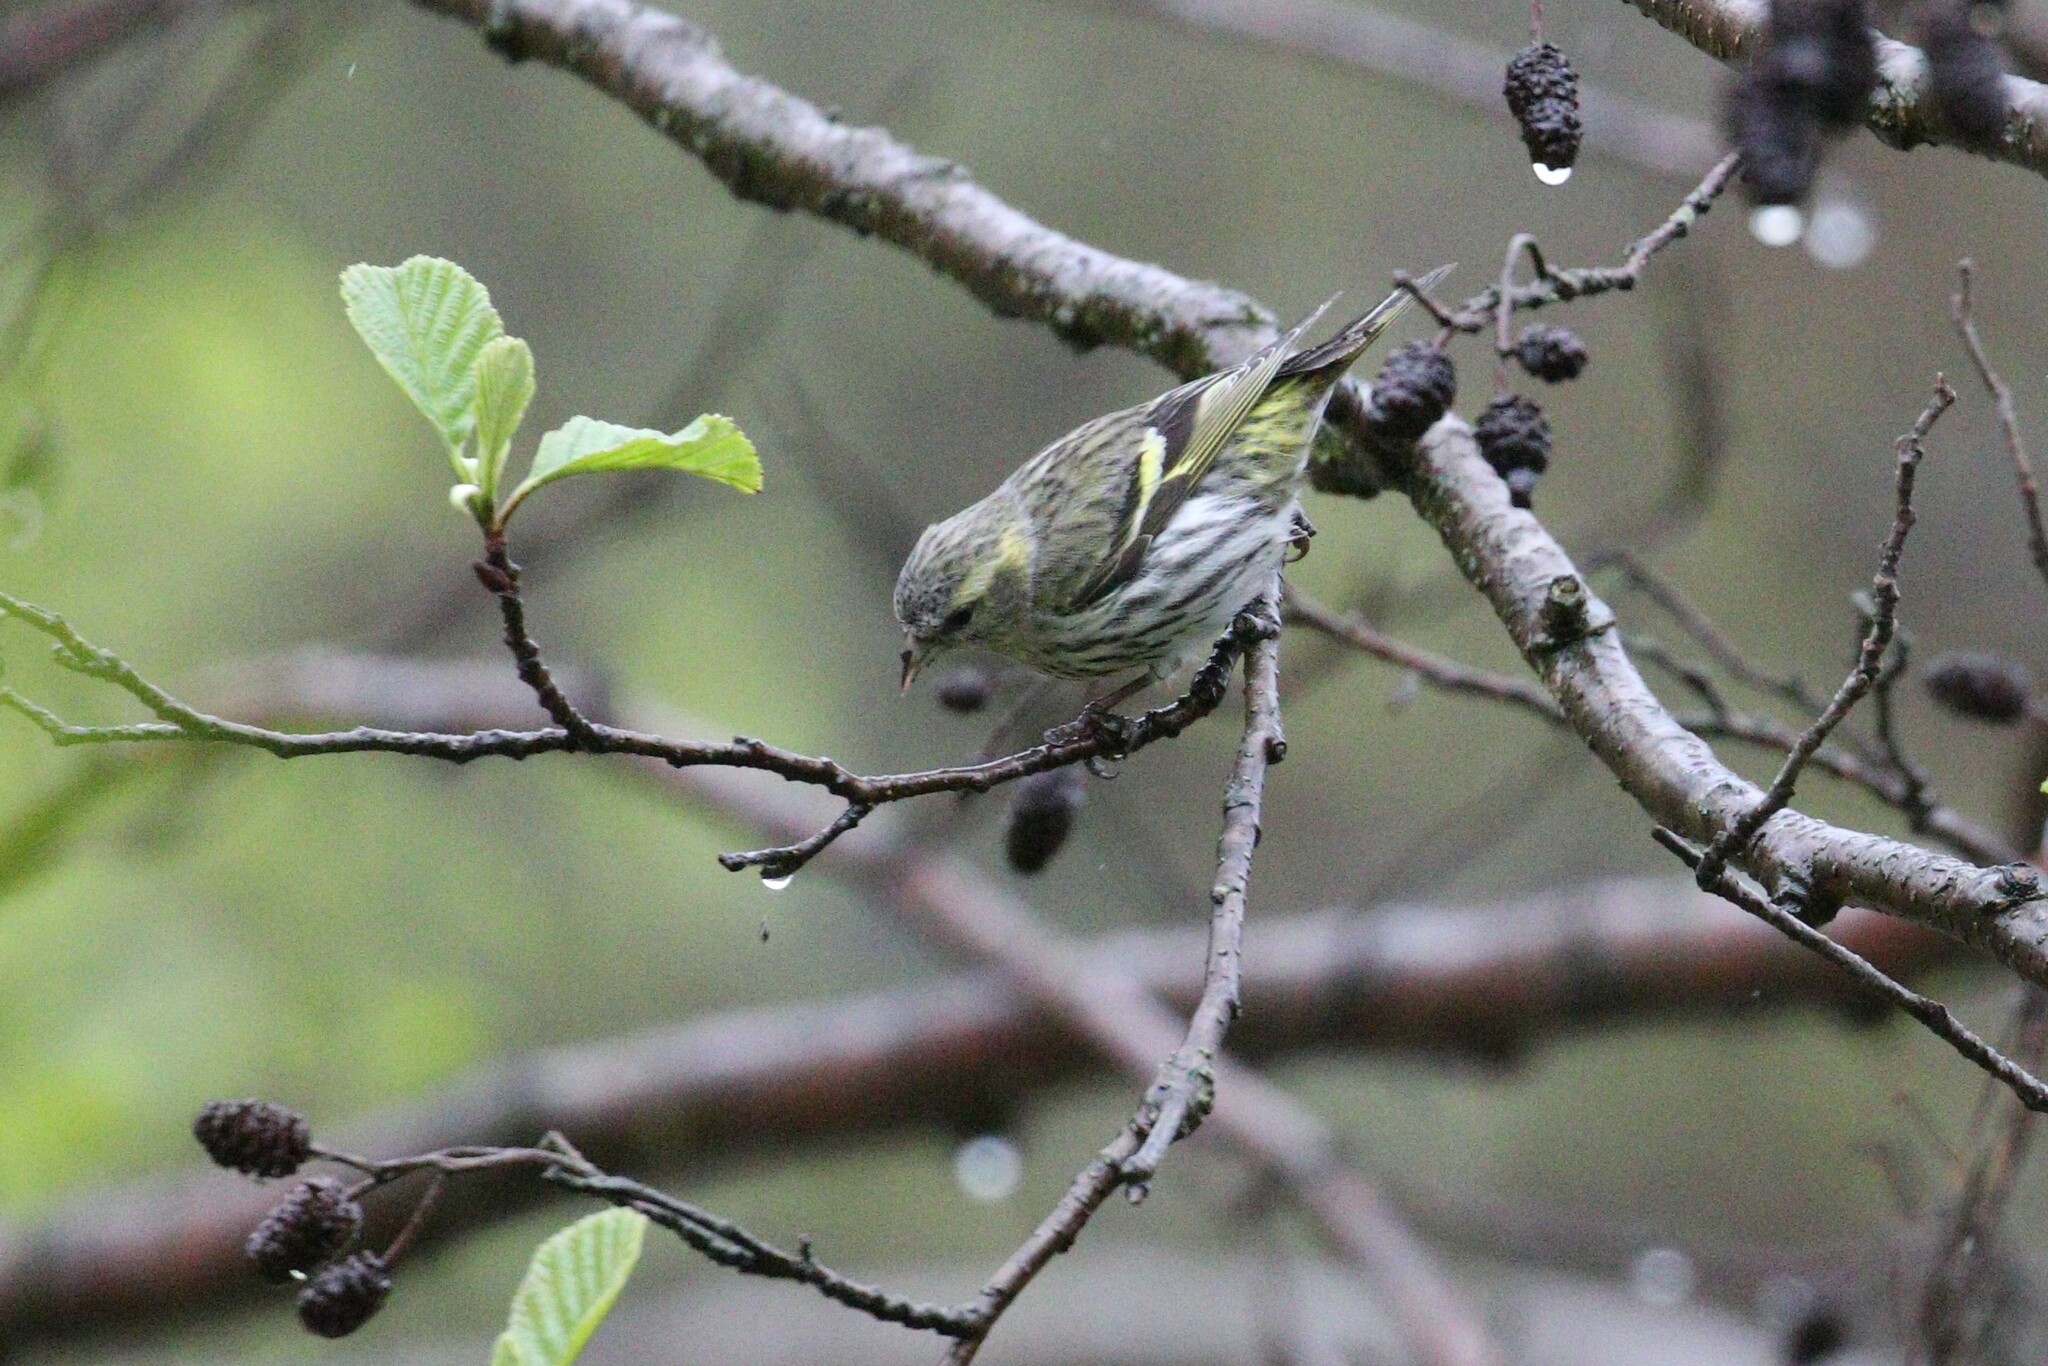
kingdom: Animalia
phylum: Chordata
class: Aves
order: Passeriformes
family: Fringillidae
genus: Spinus
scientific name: Spinus spinus
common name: Eurasian siskin
